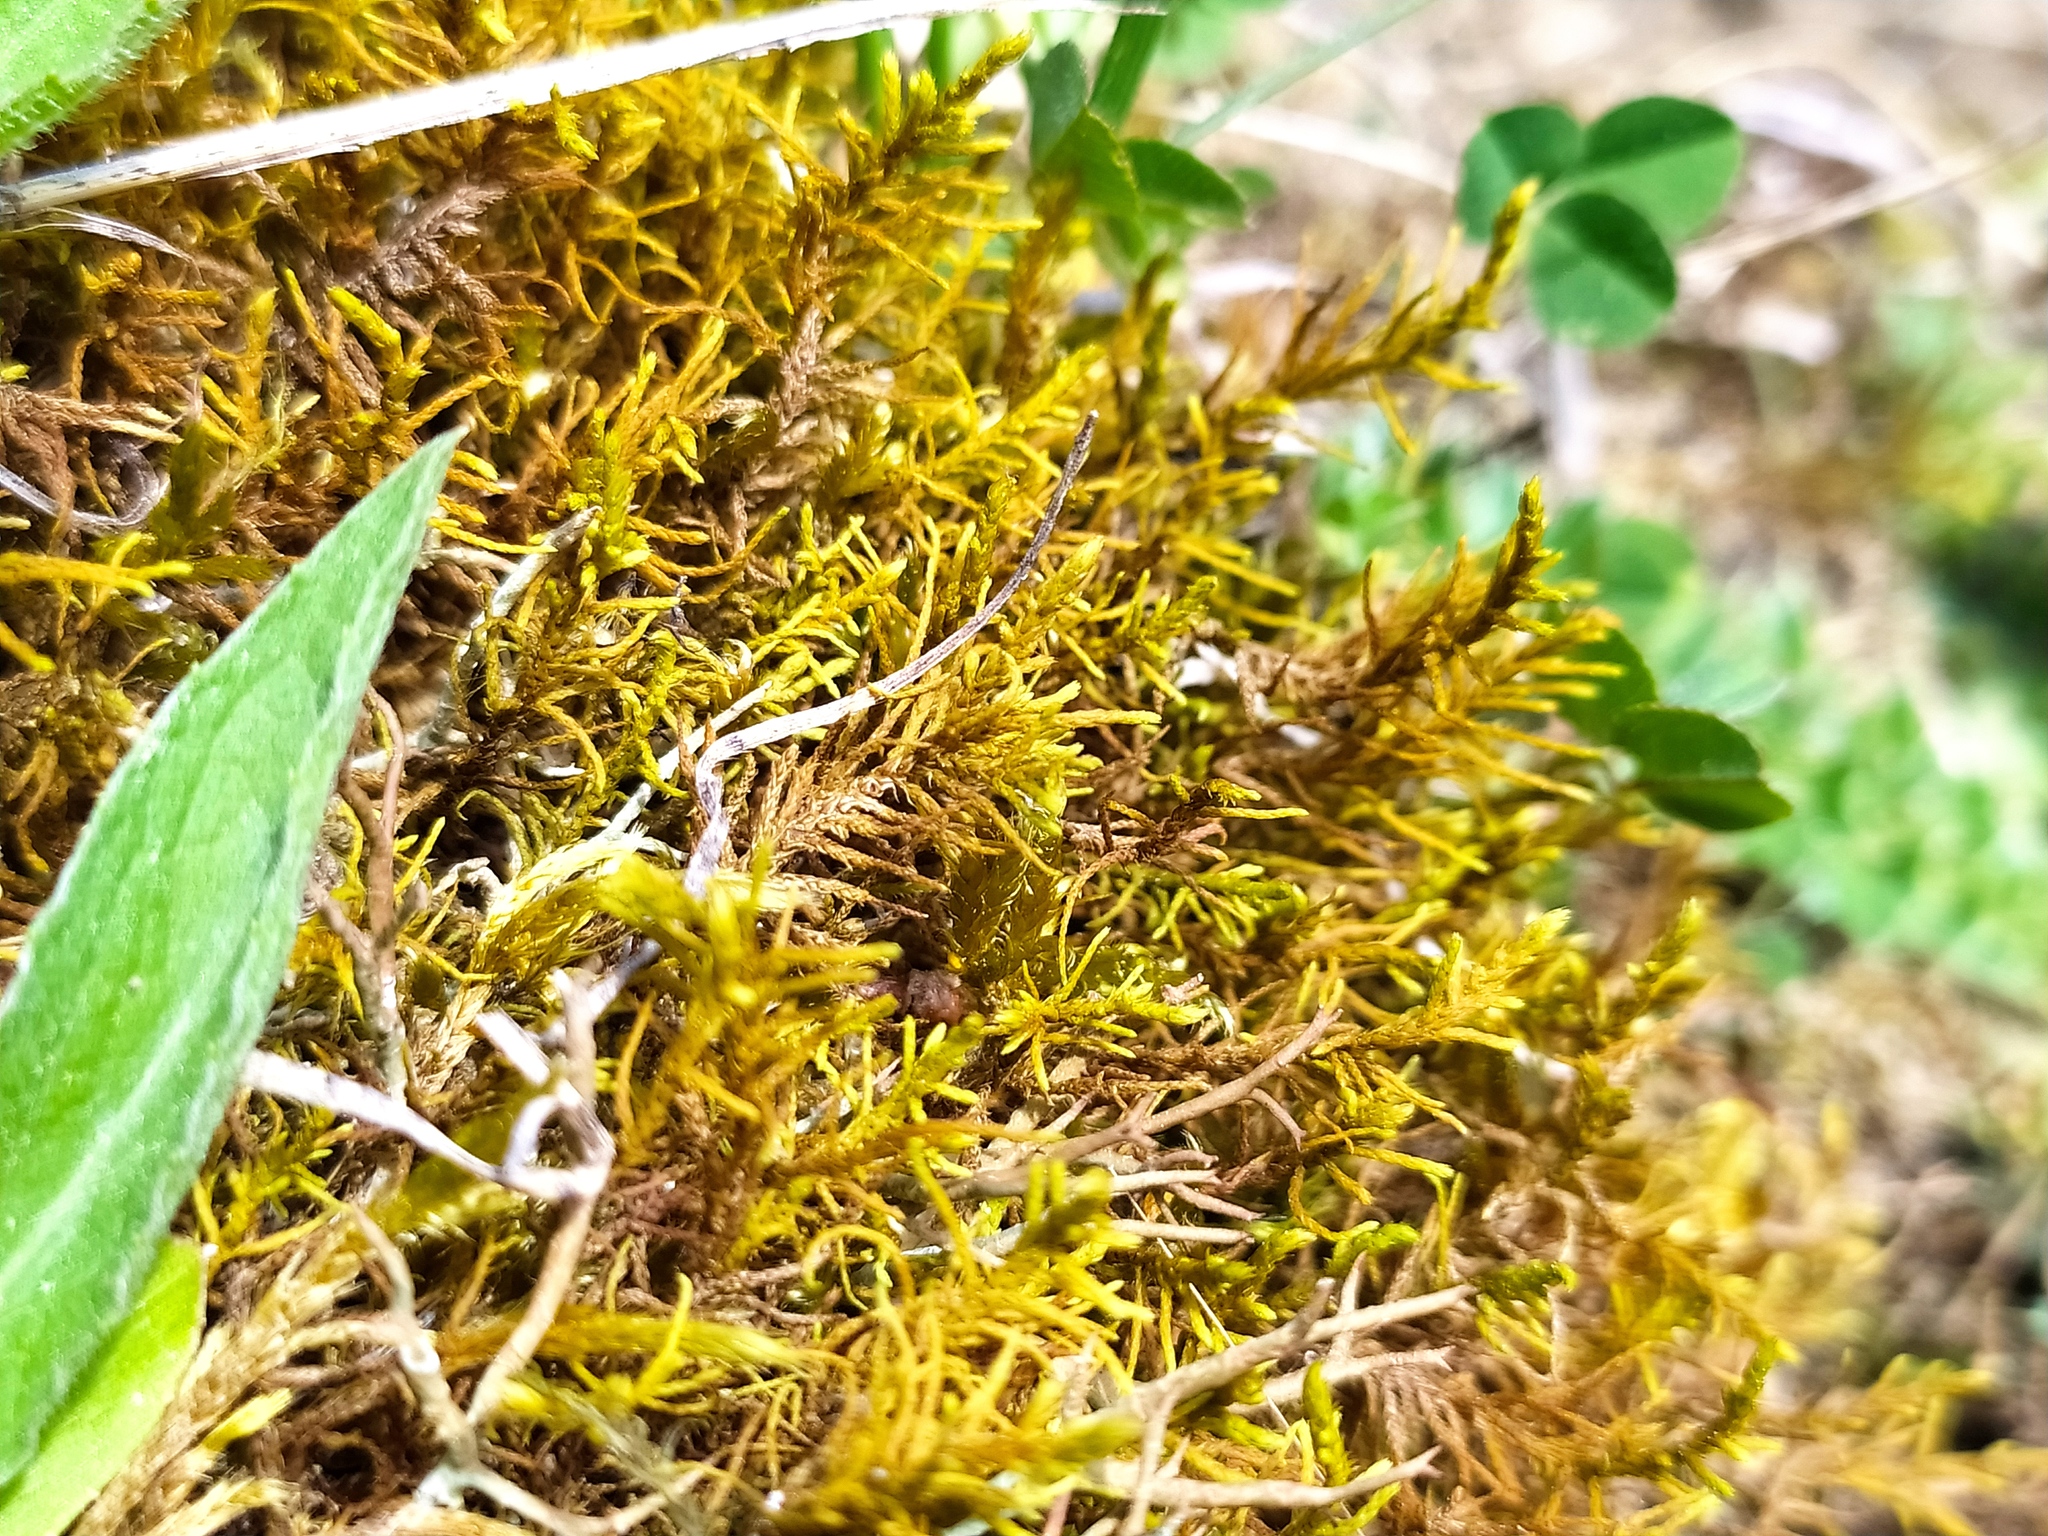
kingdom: Plantae
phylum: Bryophyta
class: Bryopsida
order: Hypnales
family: Thuidiaceae
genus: Abietinella
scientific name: Abietinella abietina
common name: Wiry fern moss
